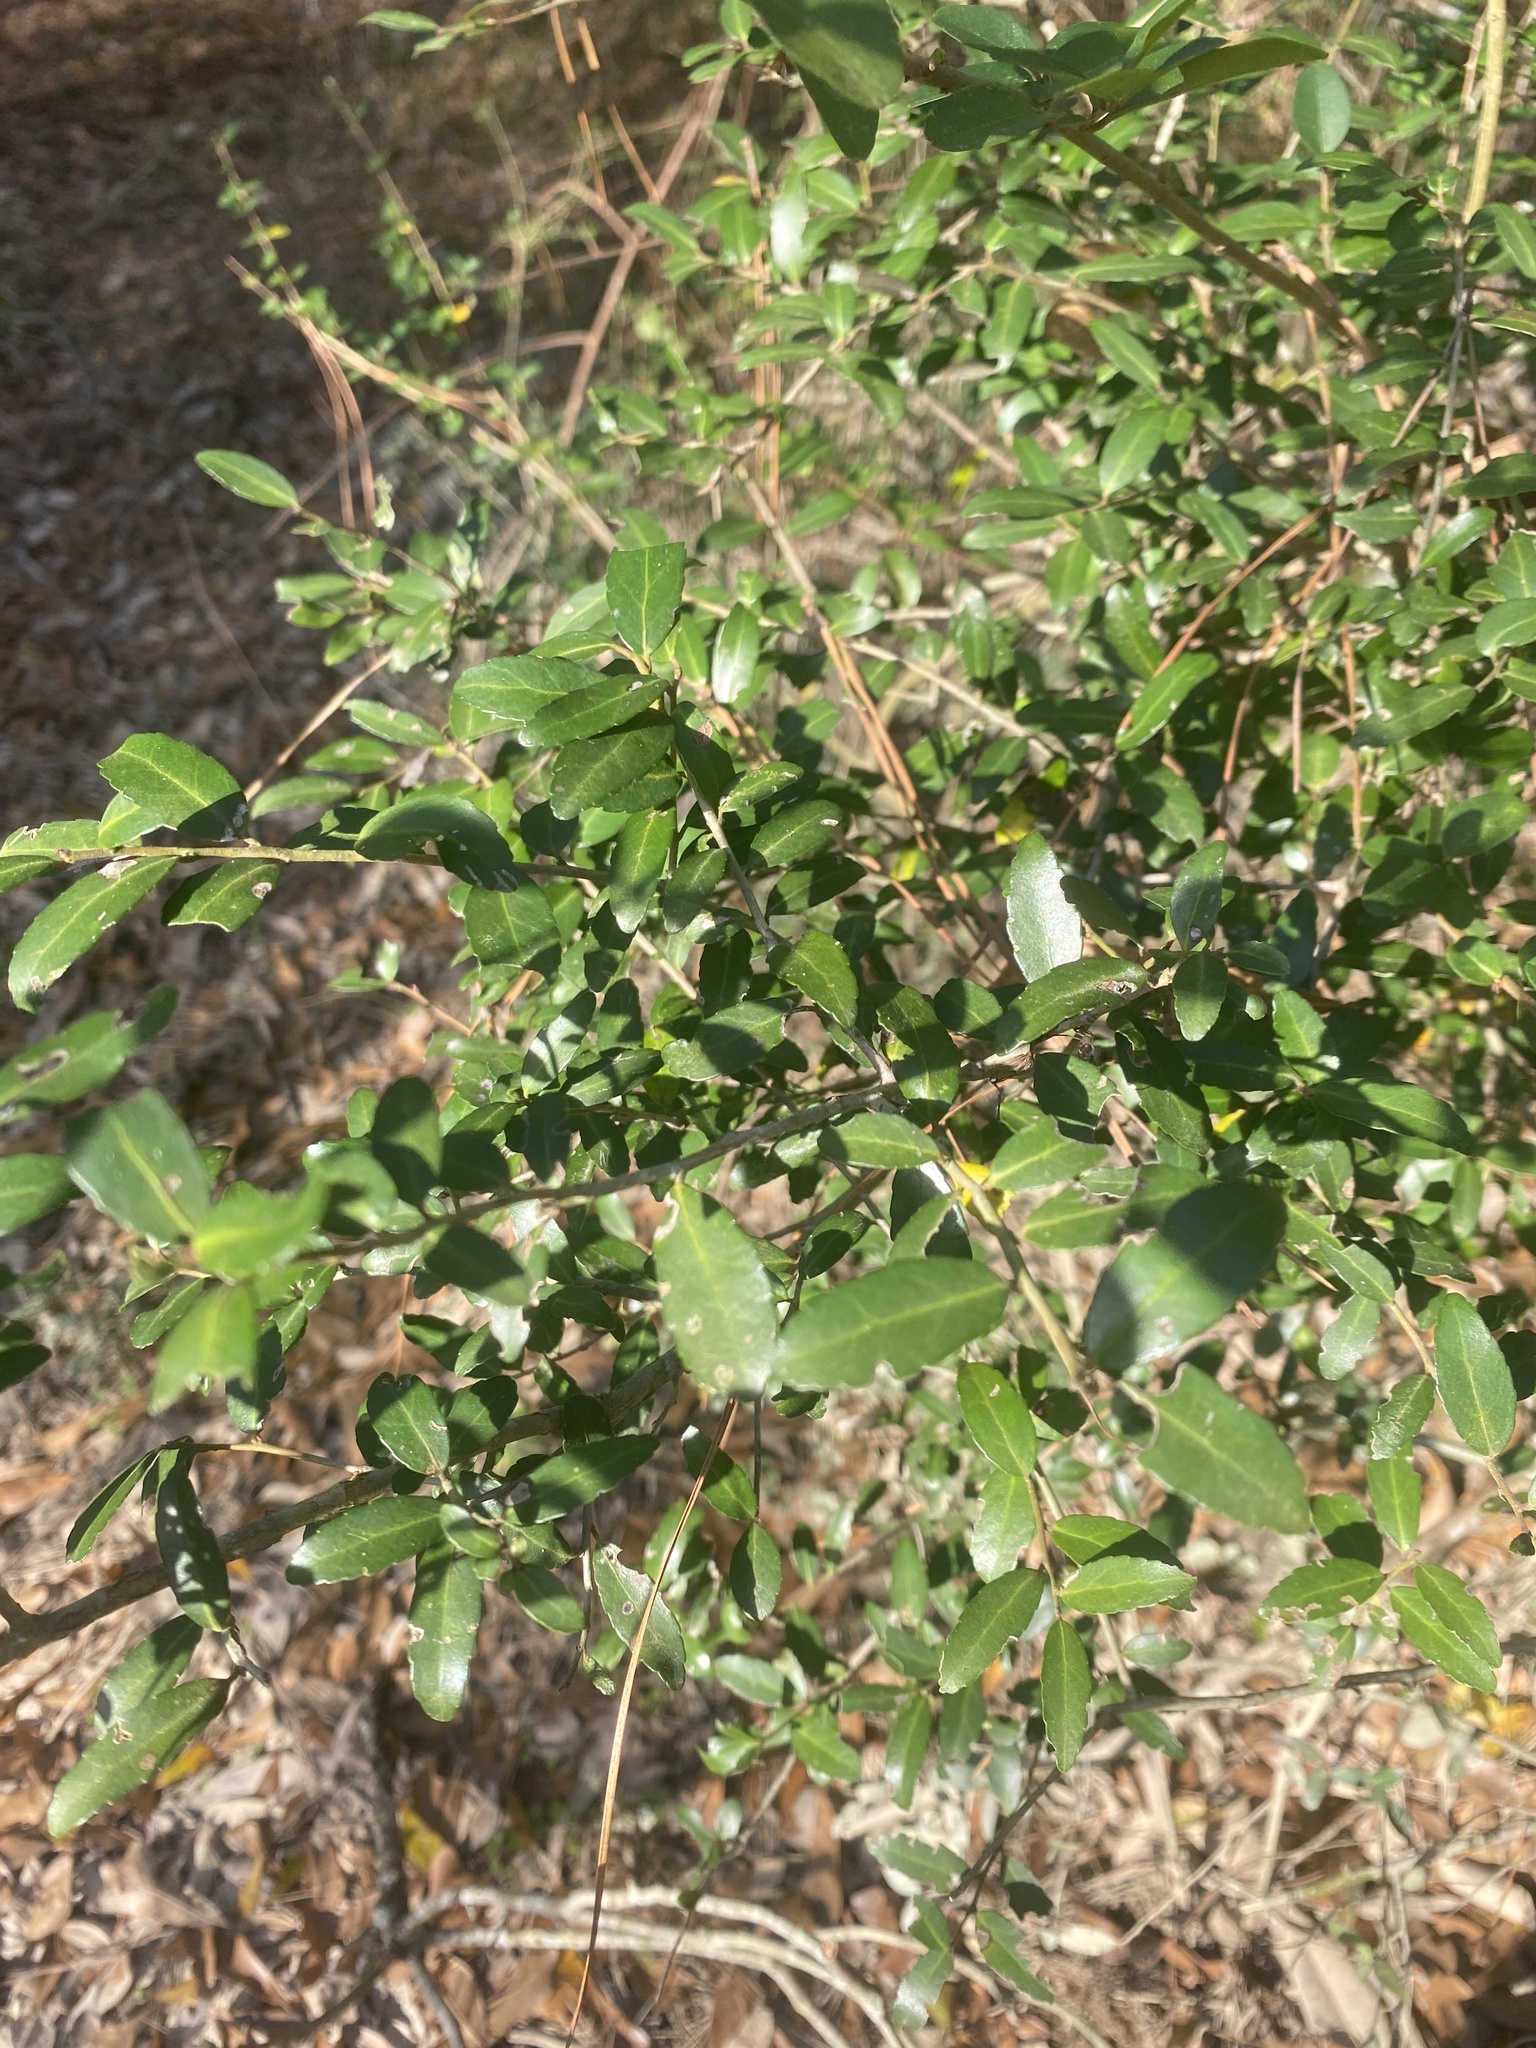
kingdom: Plantae
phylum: Tracheophyta
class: Magnoliopsida
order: Aquifoliales
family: Aquifoliaceae
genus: Ilex
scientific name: Ilex vomitoria
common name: Yaupon holly
